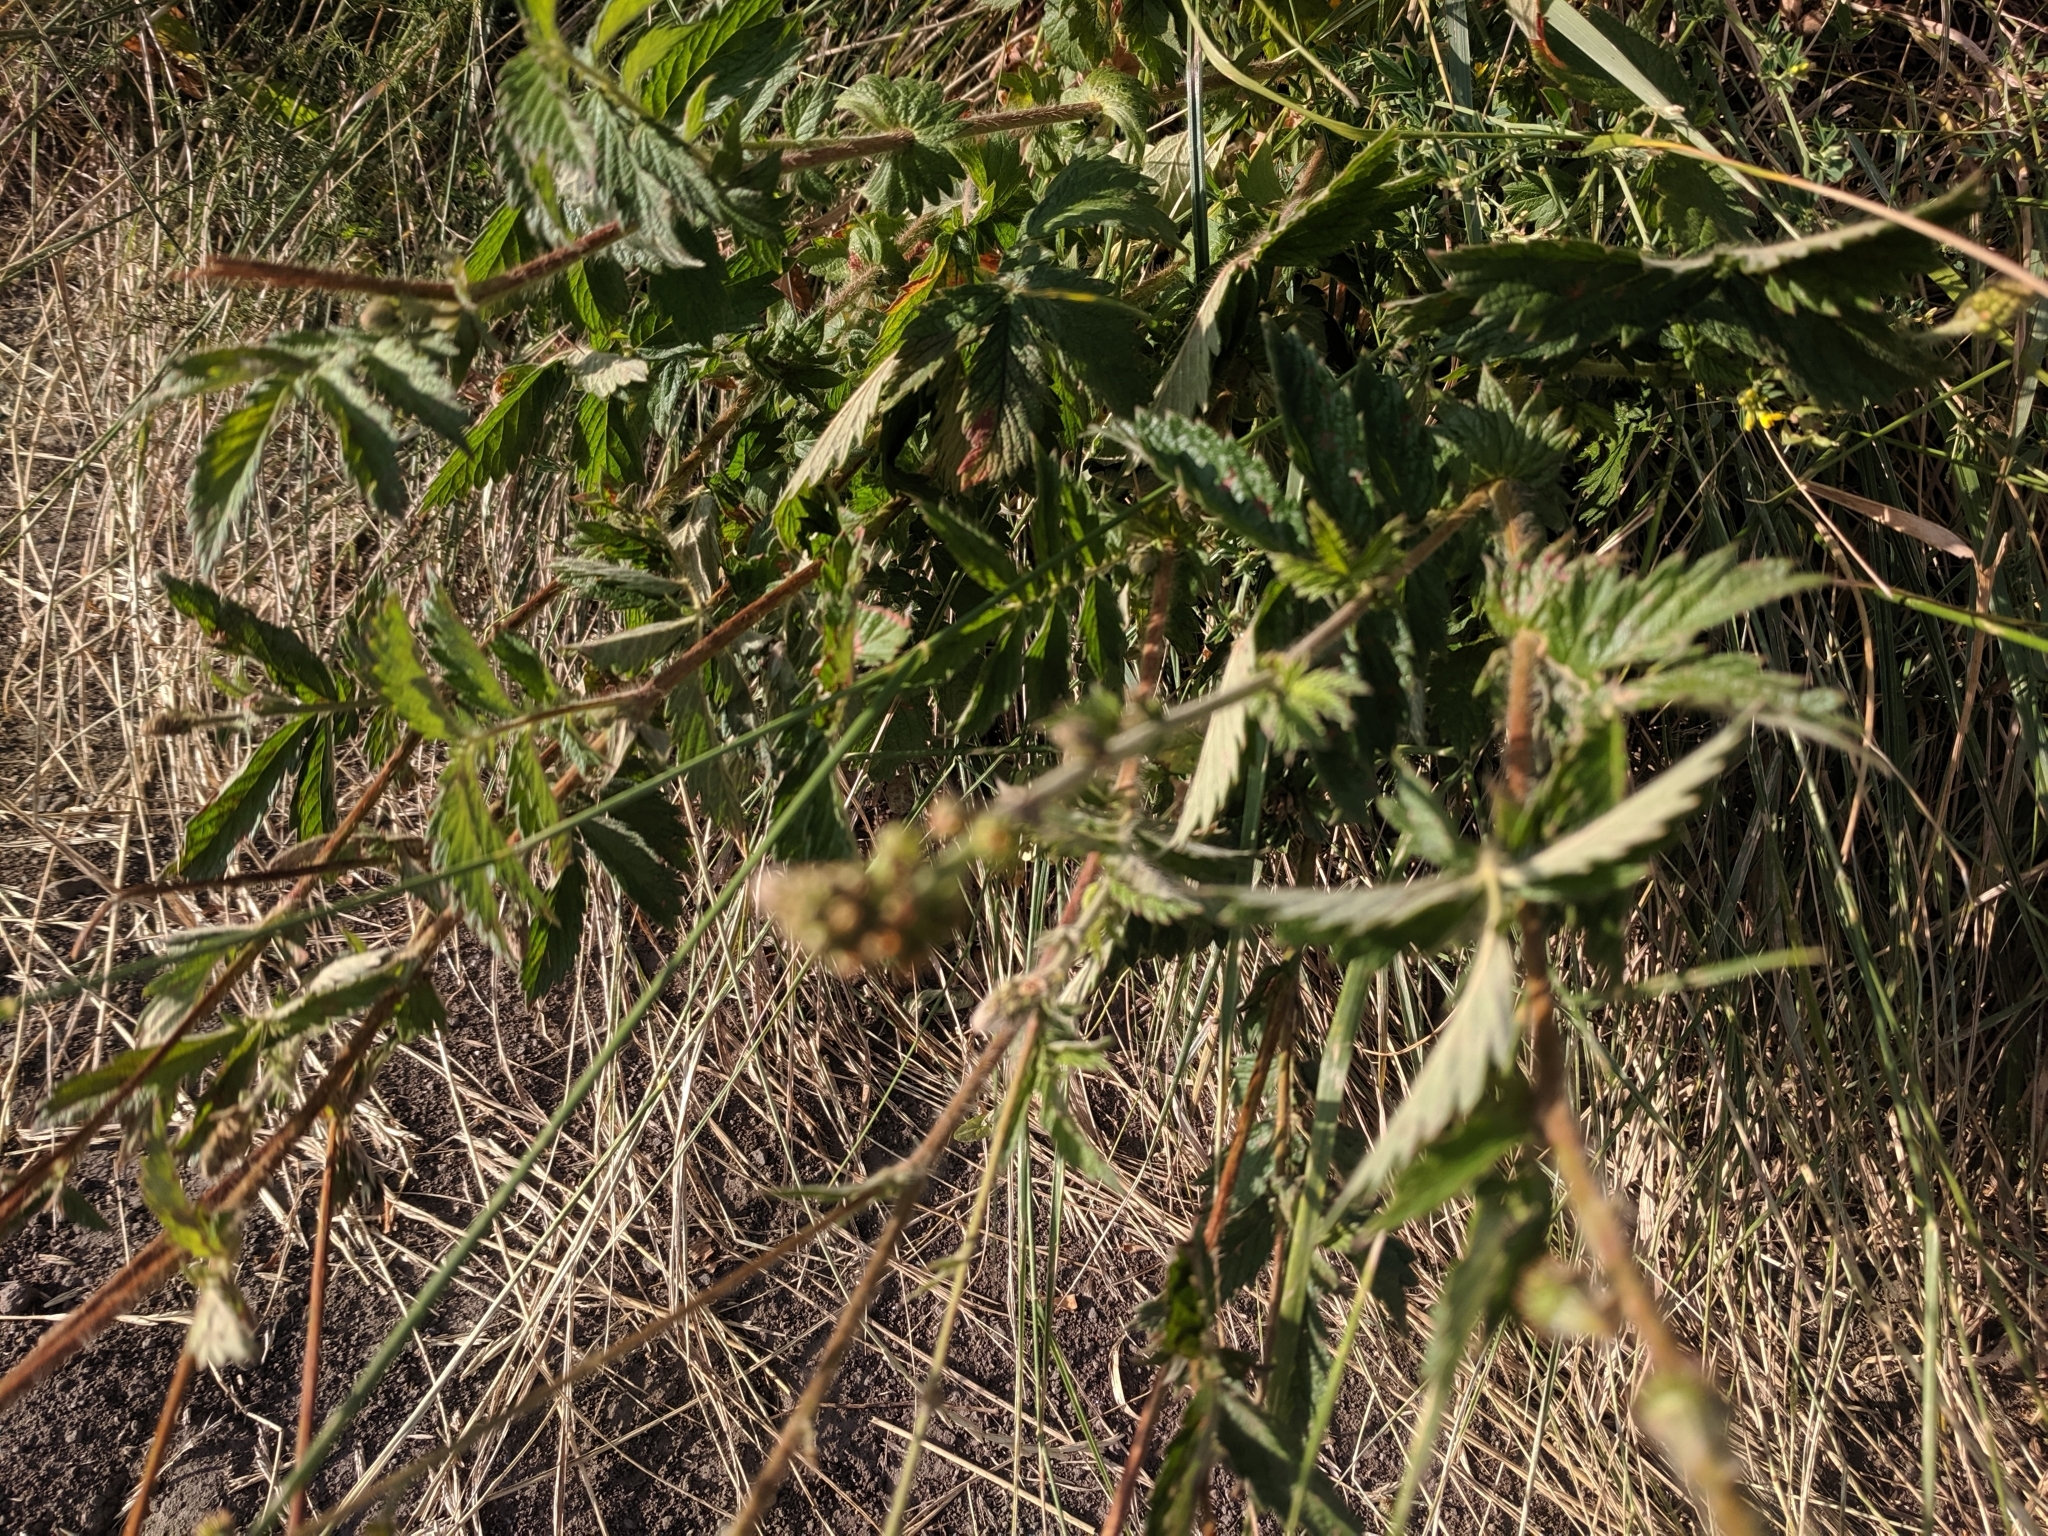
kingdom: Plantae
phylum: Tracheophyta
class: Magnoliopsida
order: Rosales
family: Rosaceae
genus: Agrimonia
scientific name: Agrimonia eupatoria
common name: Agrimony
